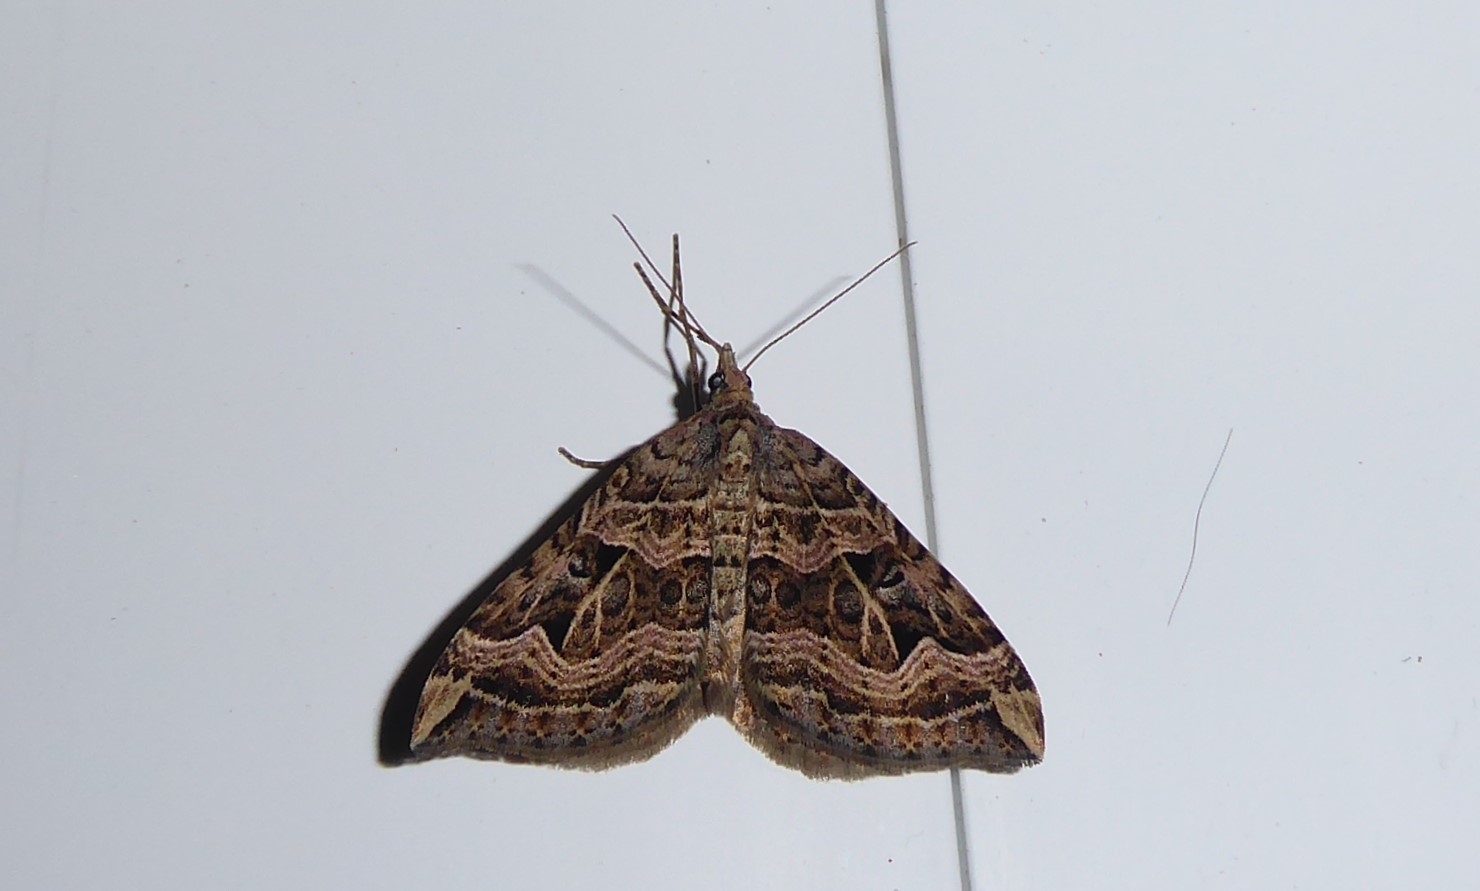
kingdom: Animalia
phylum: Arthropoda
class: Insecta
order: Lepidoptera
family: Geometridae
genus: Xanthorhoe
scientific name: Xanthorhoe semifissata
